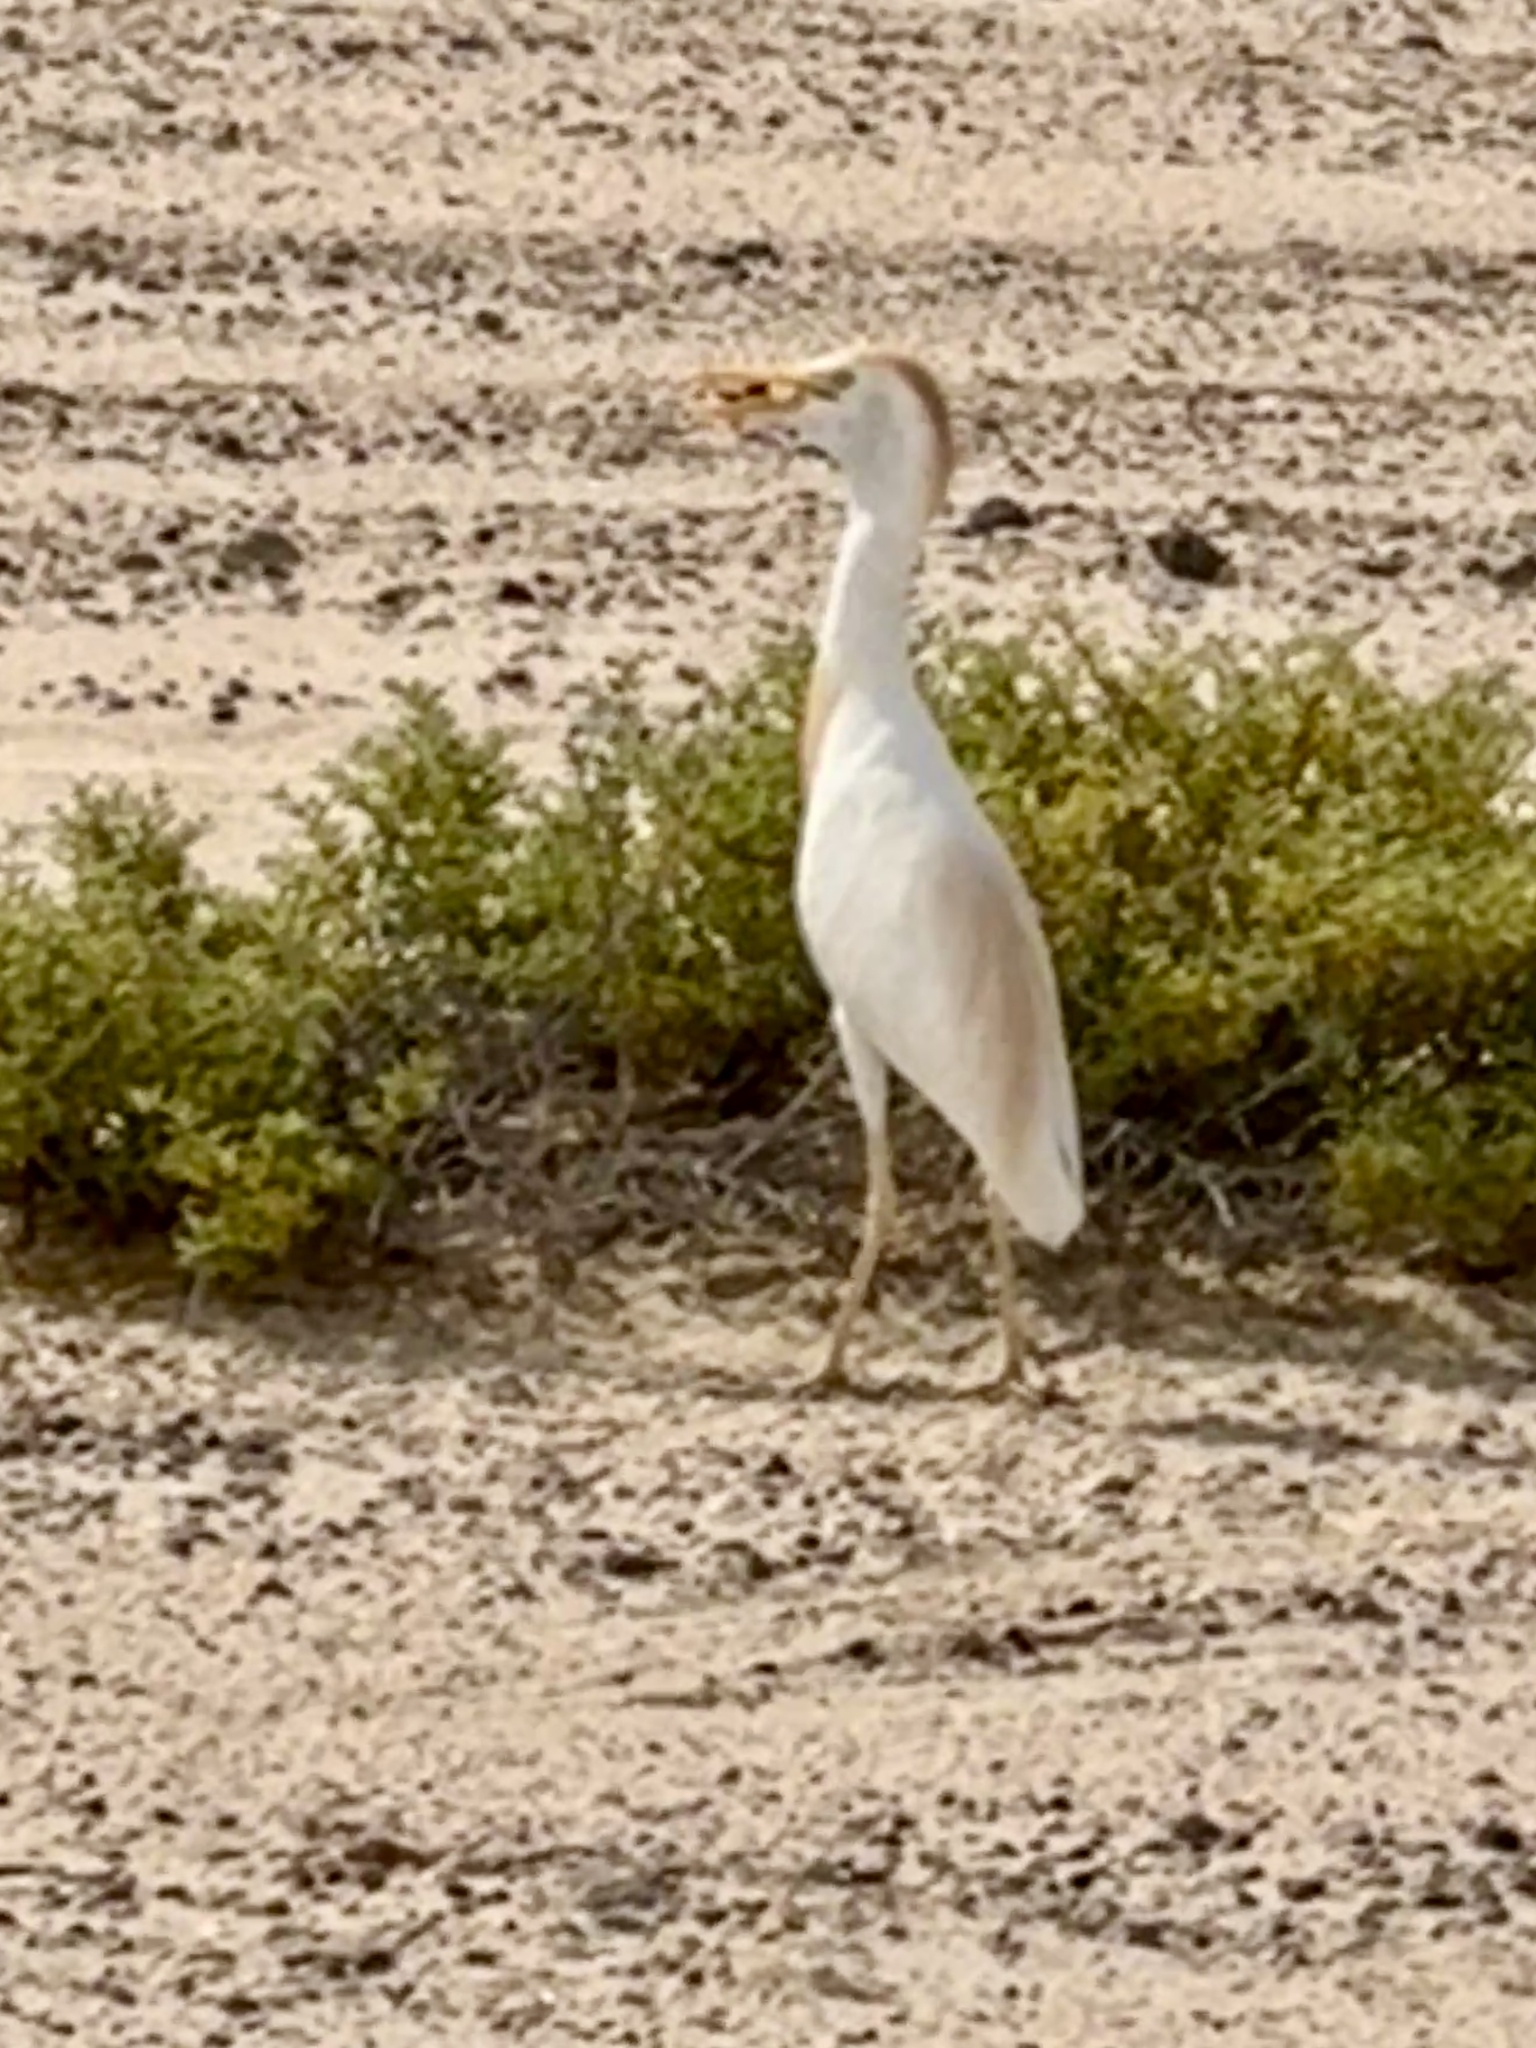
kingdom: Animalia
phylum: Chordata
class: Aves
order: Pelecaniformes
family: Ardeidae
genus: Bubulcus
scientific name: Bubulcus ibis
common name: Cattle egret
